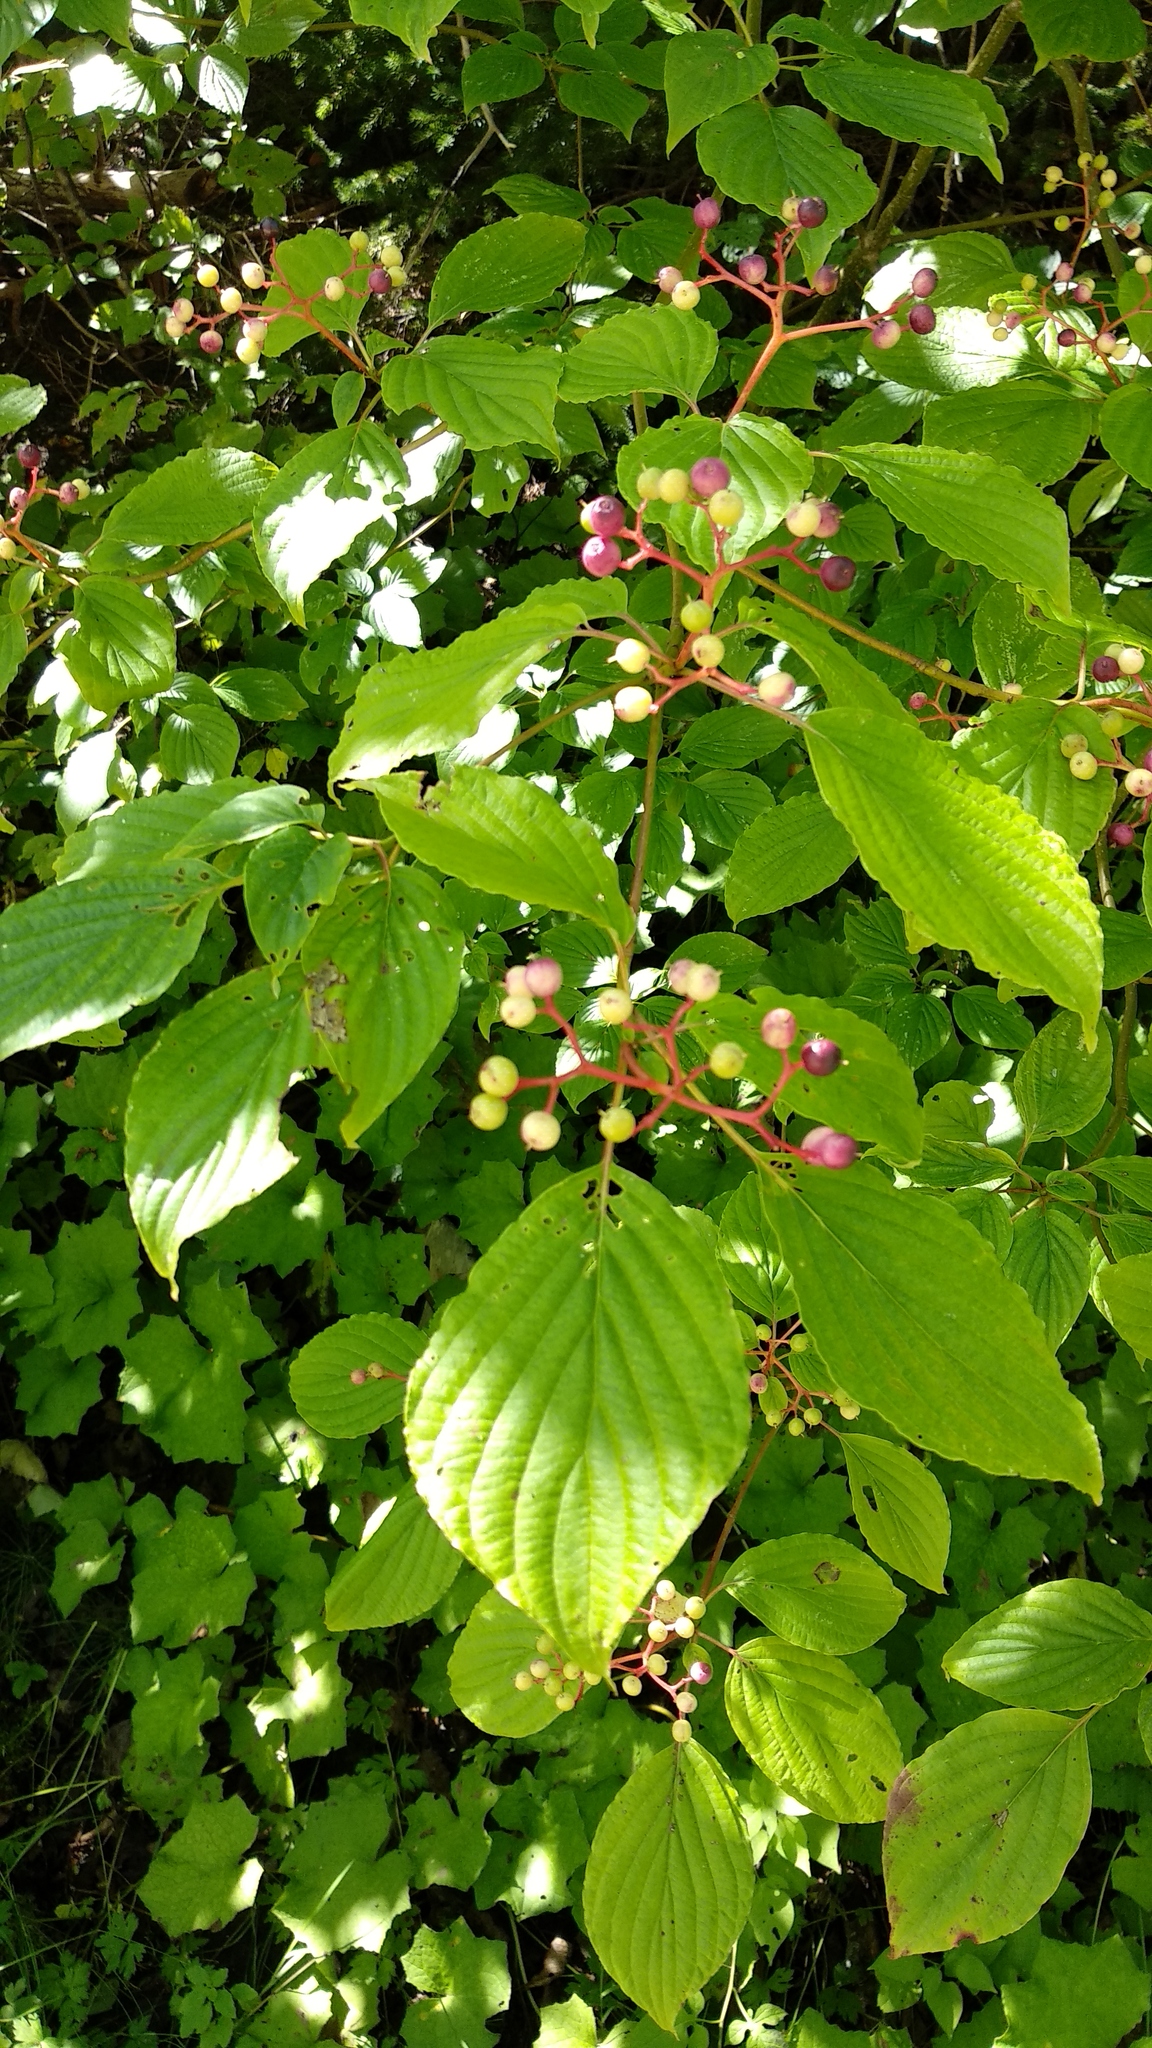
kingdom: Plantae
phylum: Tracheophyta
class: Magnoliopsida
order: Cornales
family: Cornaceae
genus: Cornus
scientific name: Cornus alternifolia
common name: Pagoda dogwood
